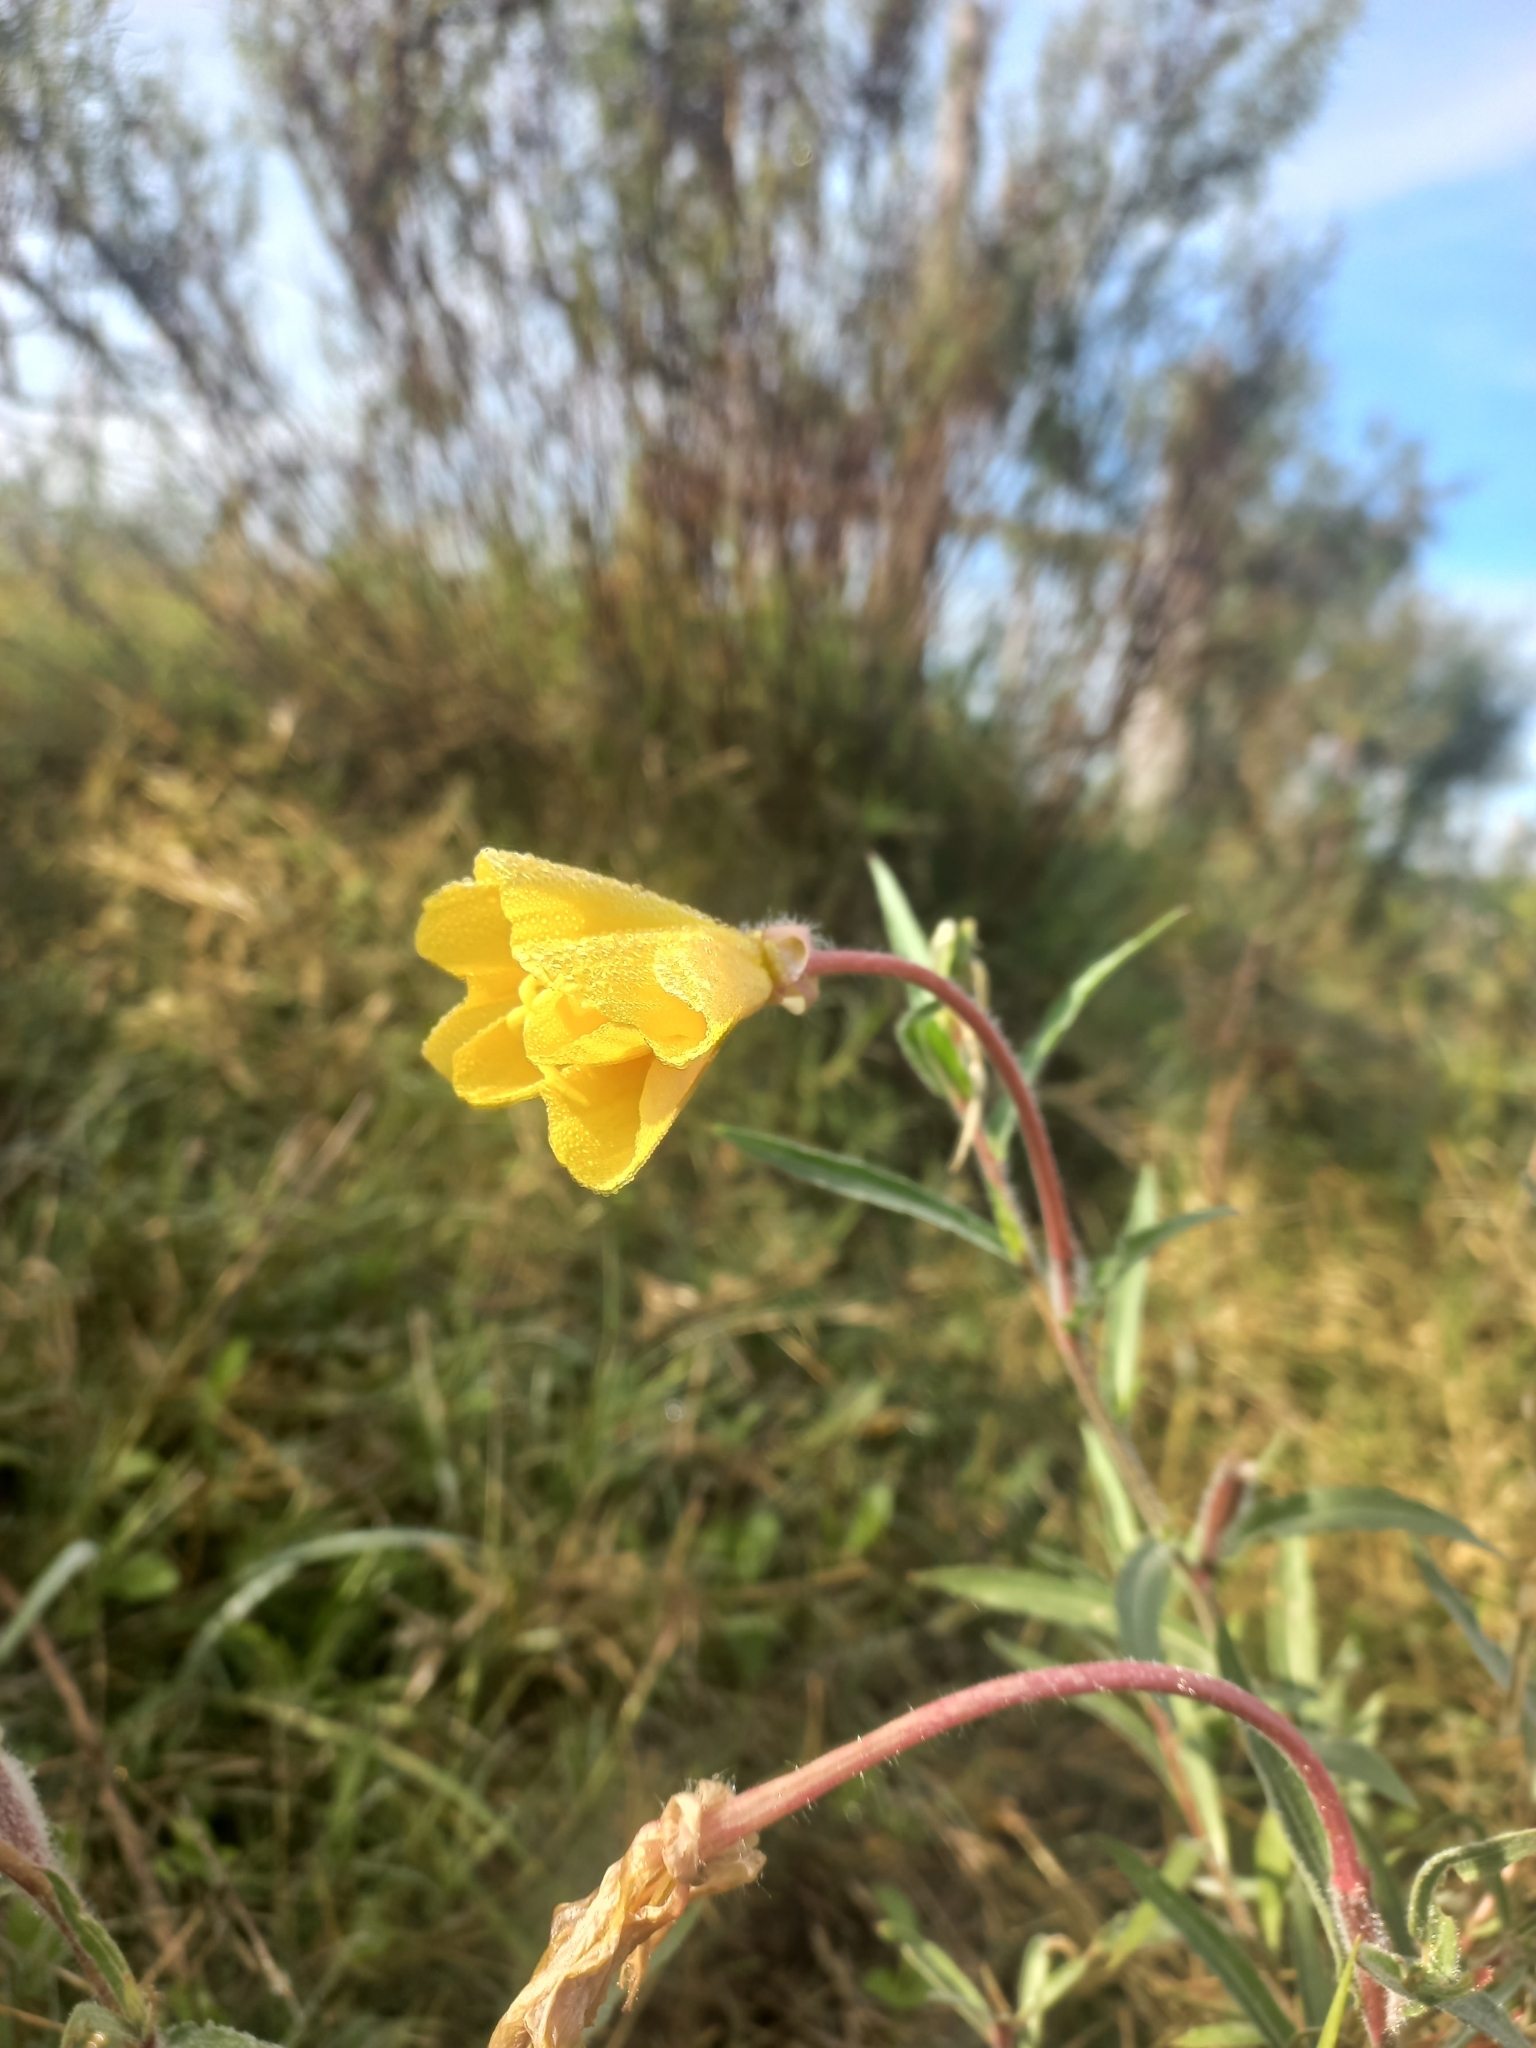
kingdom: Plantae
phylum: Tracheophyta
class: Magnoliopsida
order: Myrtales
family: Onagraceae
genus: Oenothera
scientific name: Oenothera affinis
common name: Longflower evening primrose
